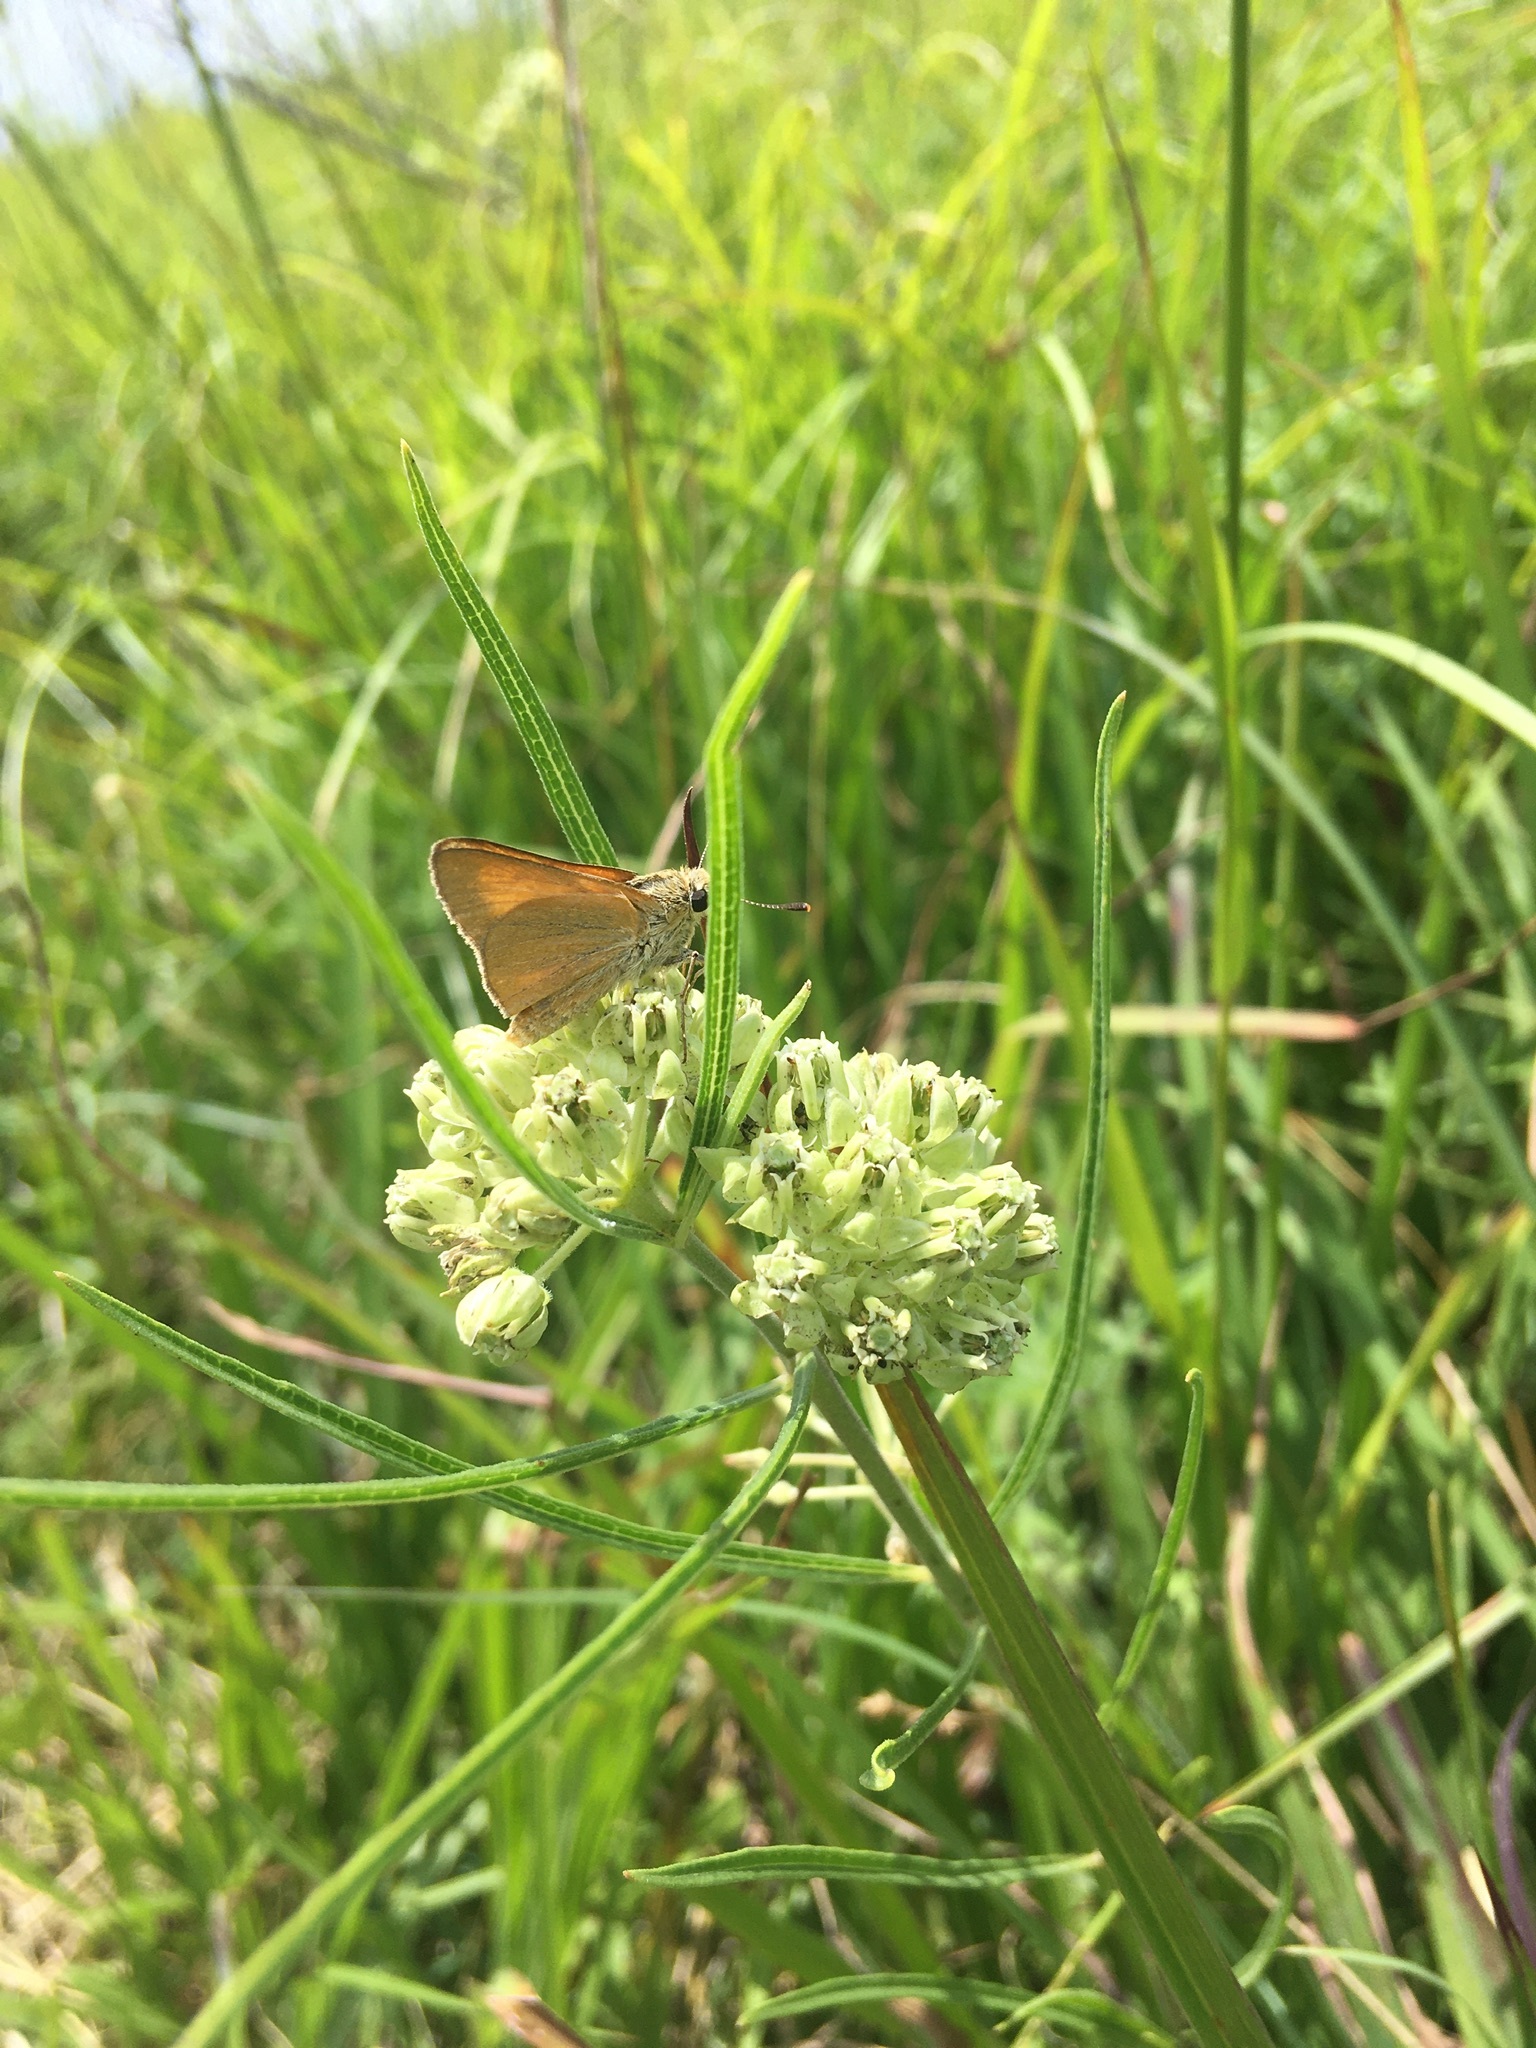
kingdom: Animalia
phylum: Arthropoda
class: Insecta
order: Lepidoptera
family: Hesperiidae
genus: Atrytone
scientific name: Atrytone delaware
